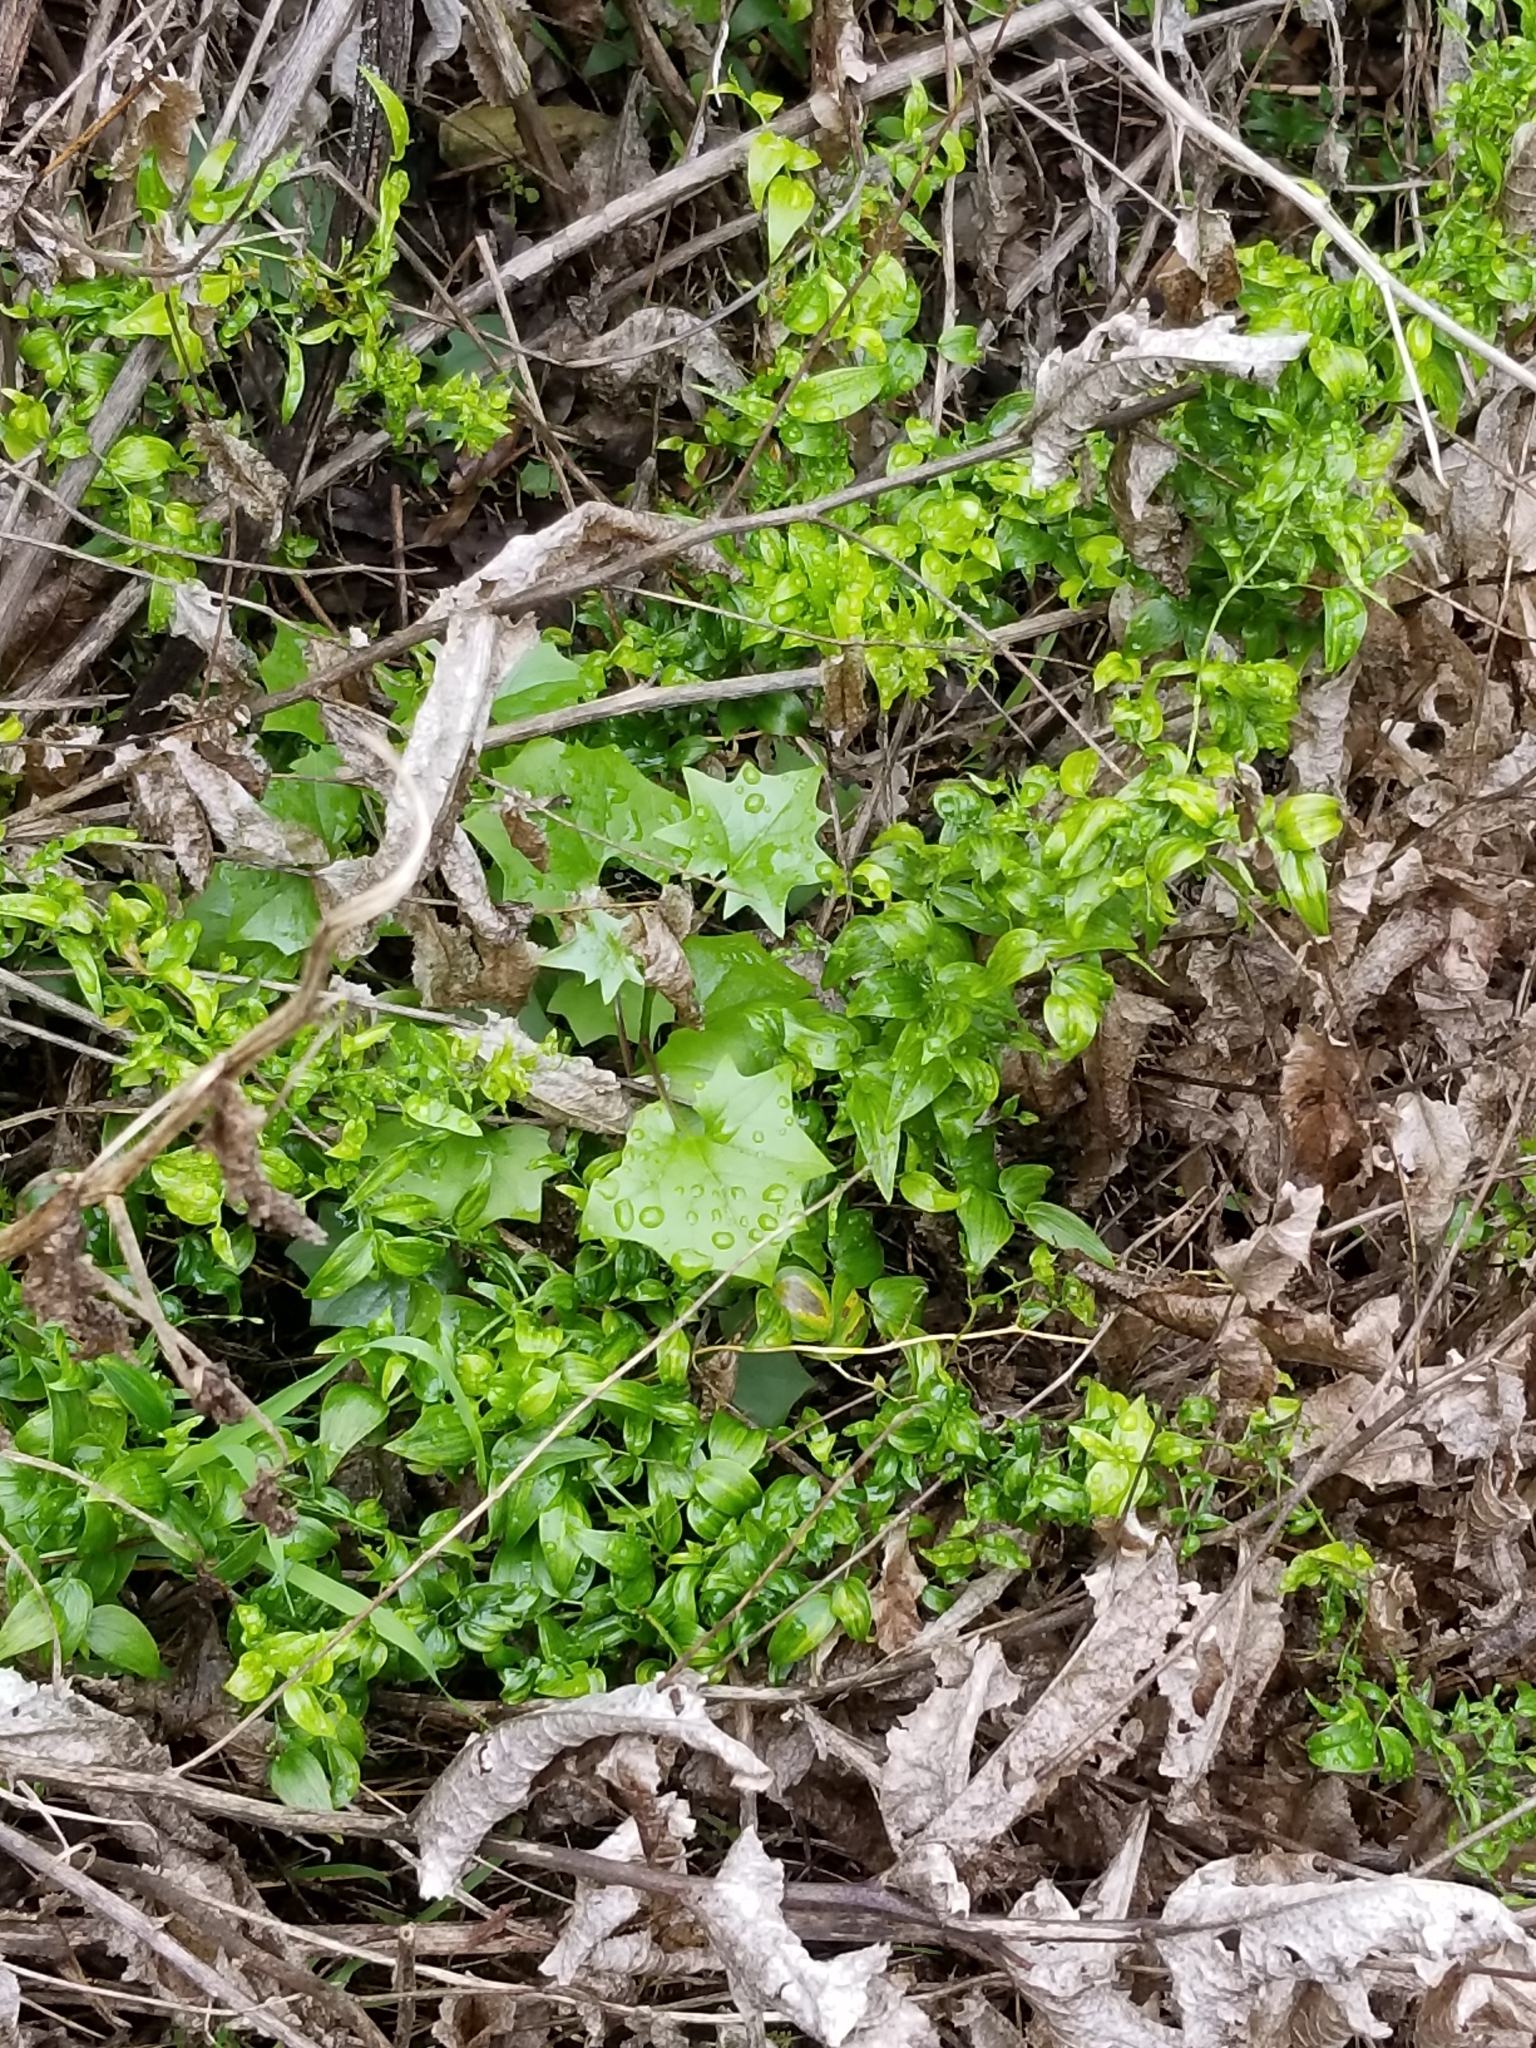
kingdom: Plantae
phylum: Tracheophyta
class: Magnoliopsida
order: Asterales
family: Asteraceae
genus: Delairea
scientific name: Delairea odorata
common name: Cape-ivy
